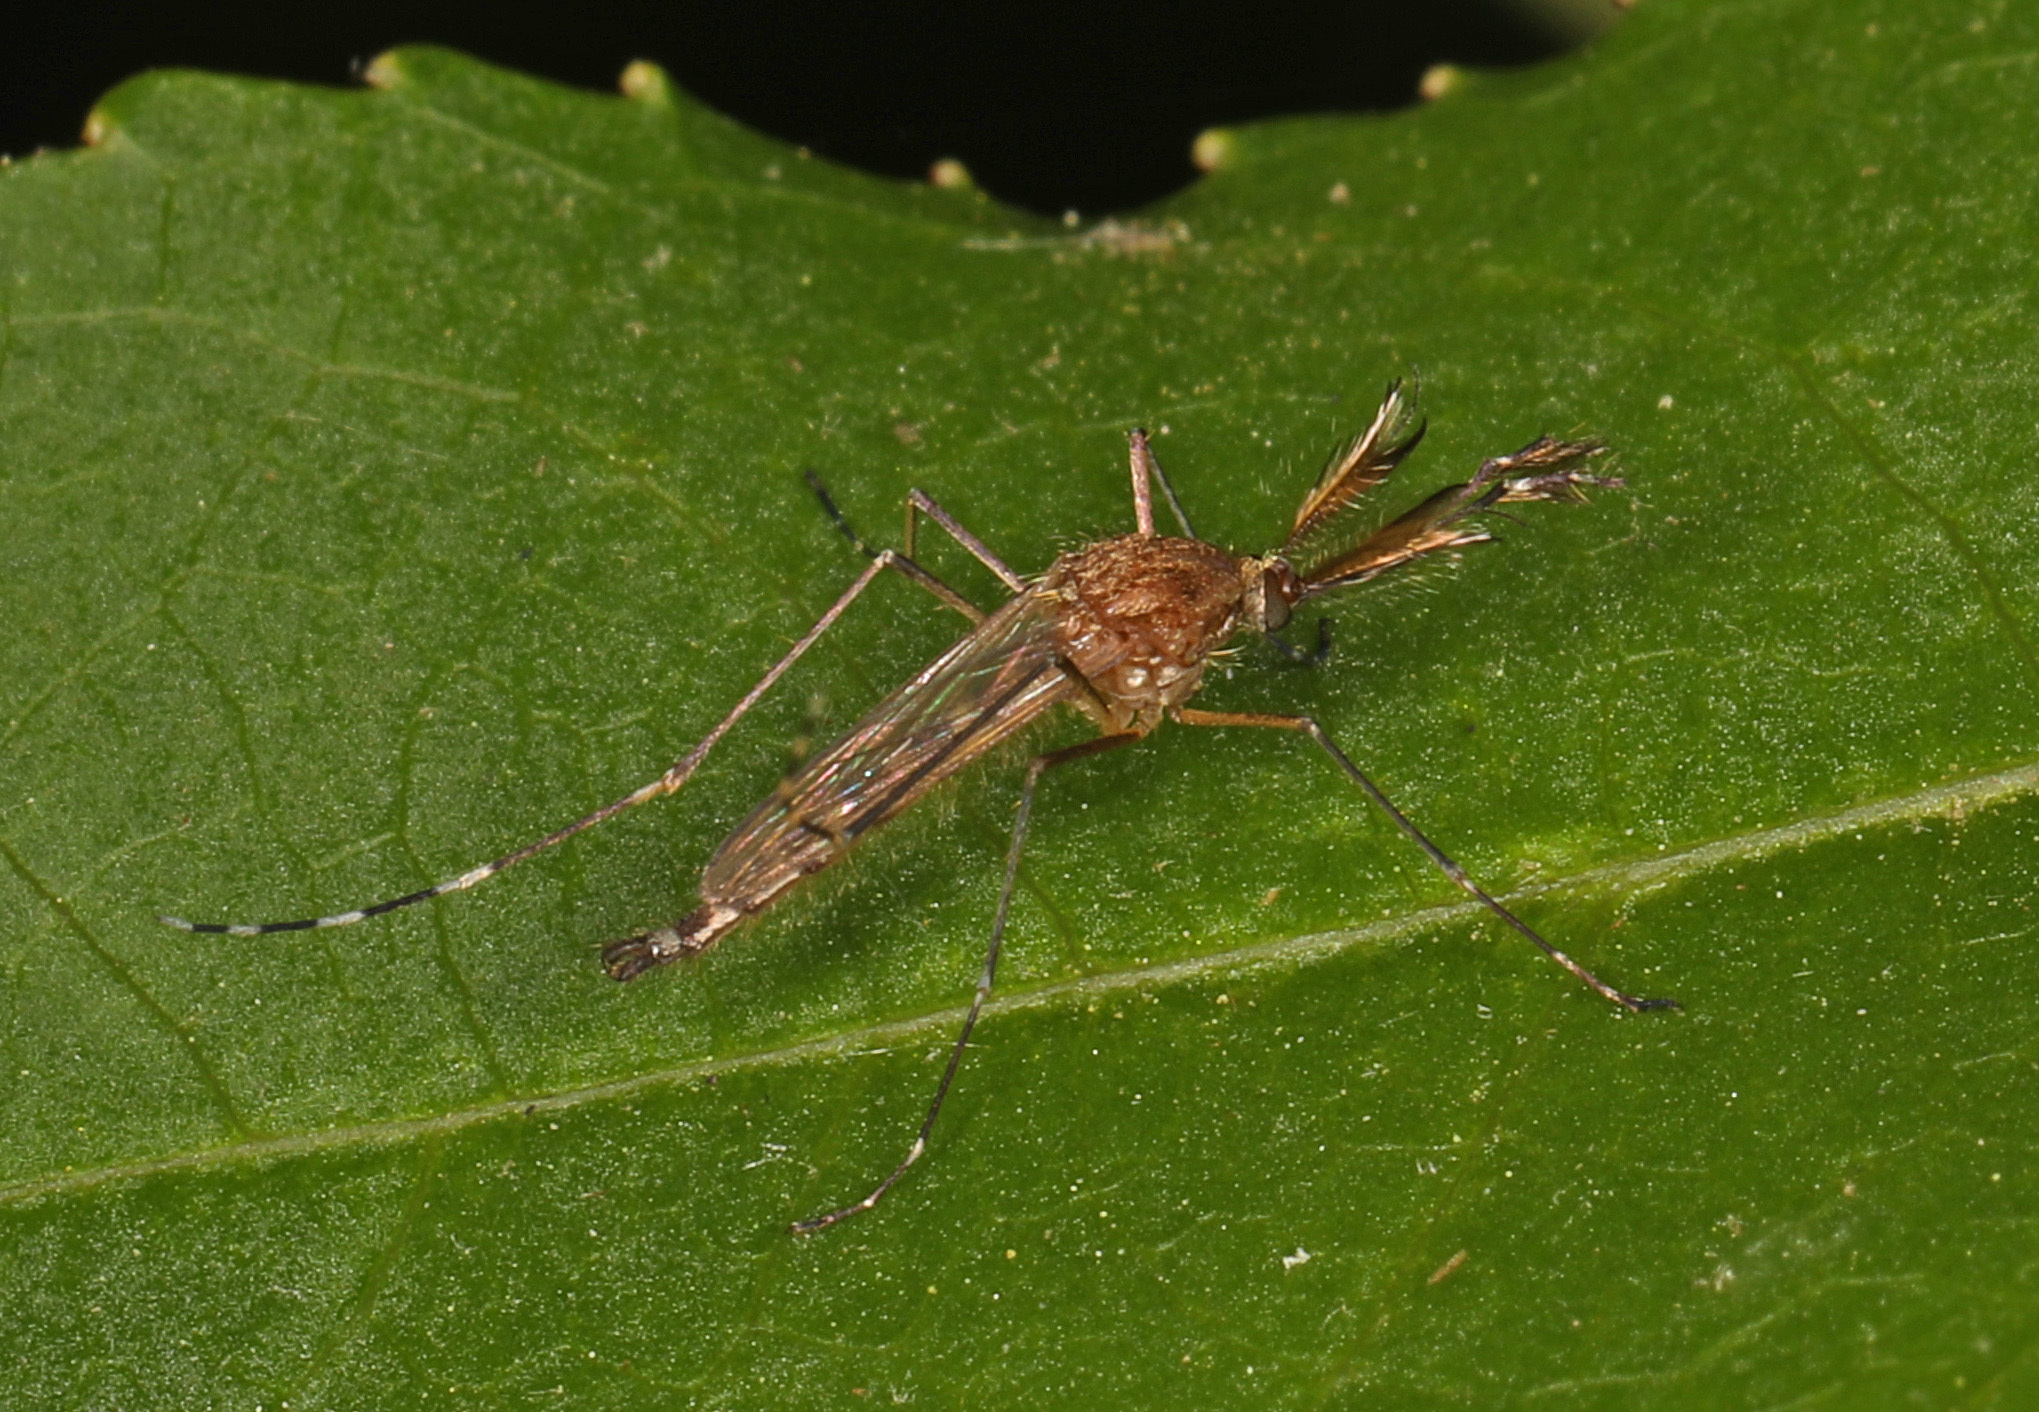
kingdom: Animalia
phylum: Arthropoda
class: Insecta
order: Diptera
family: Culicidae
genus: Aedes
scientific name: Aedes canadensis
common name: Woodland pool mosquito
